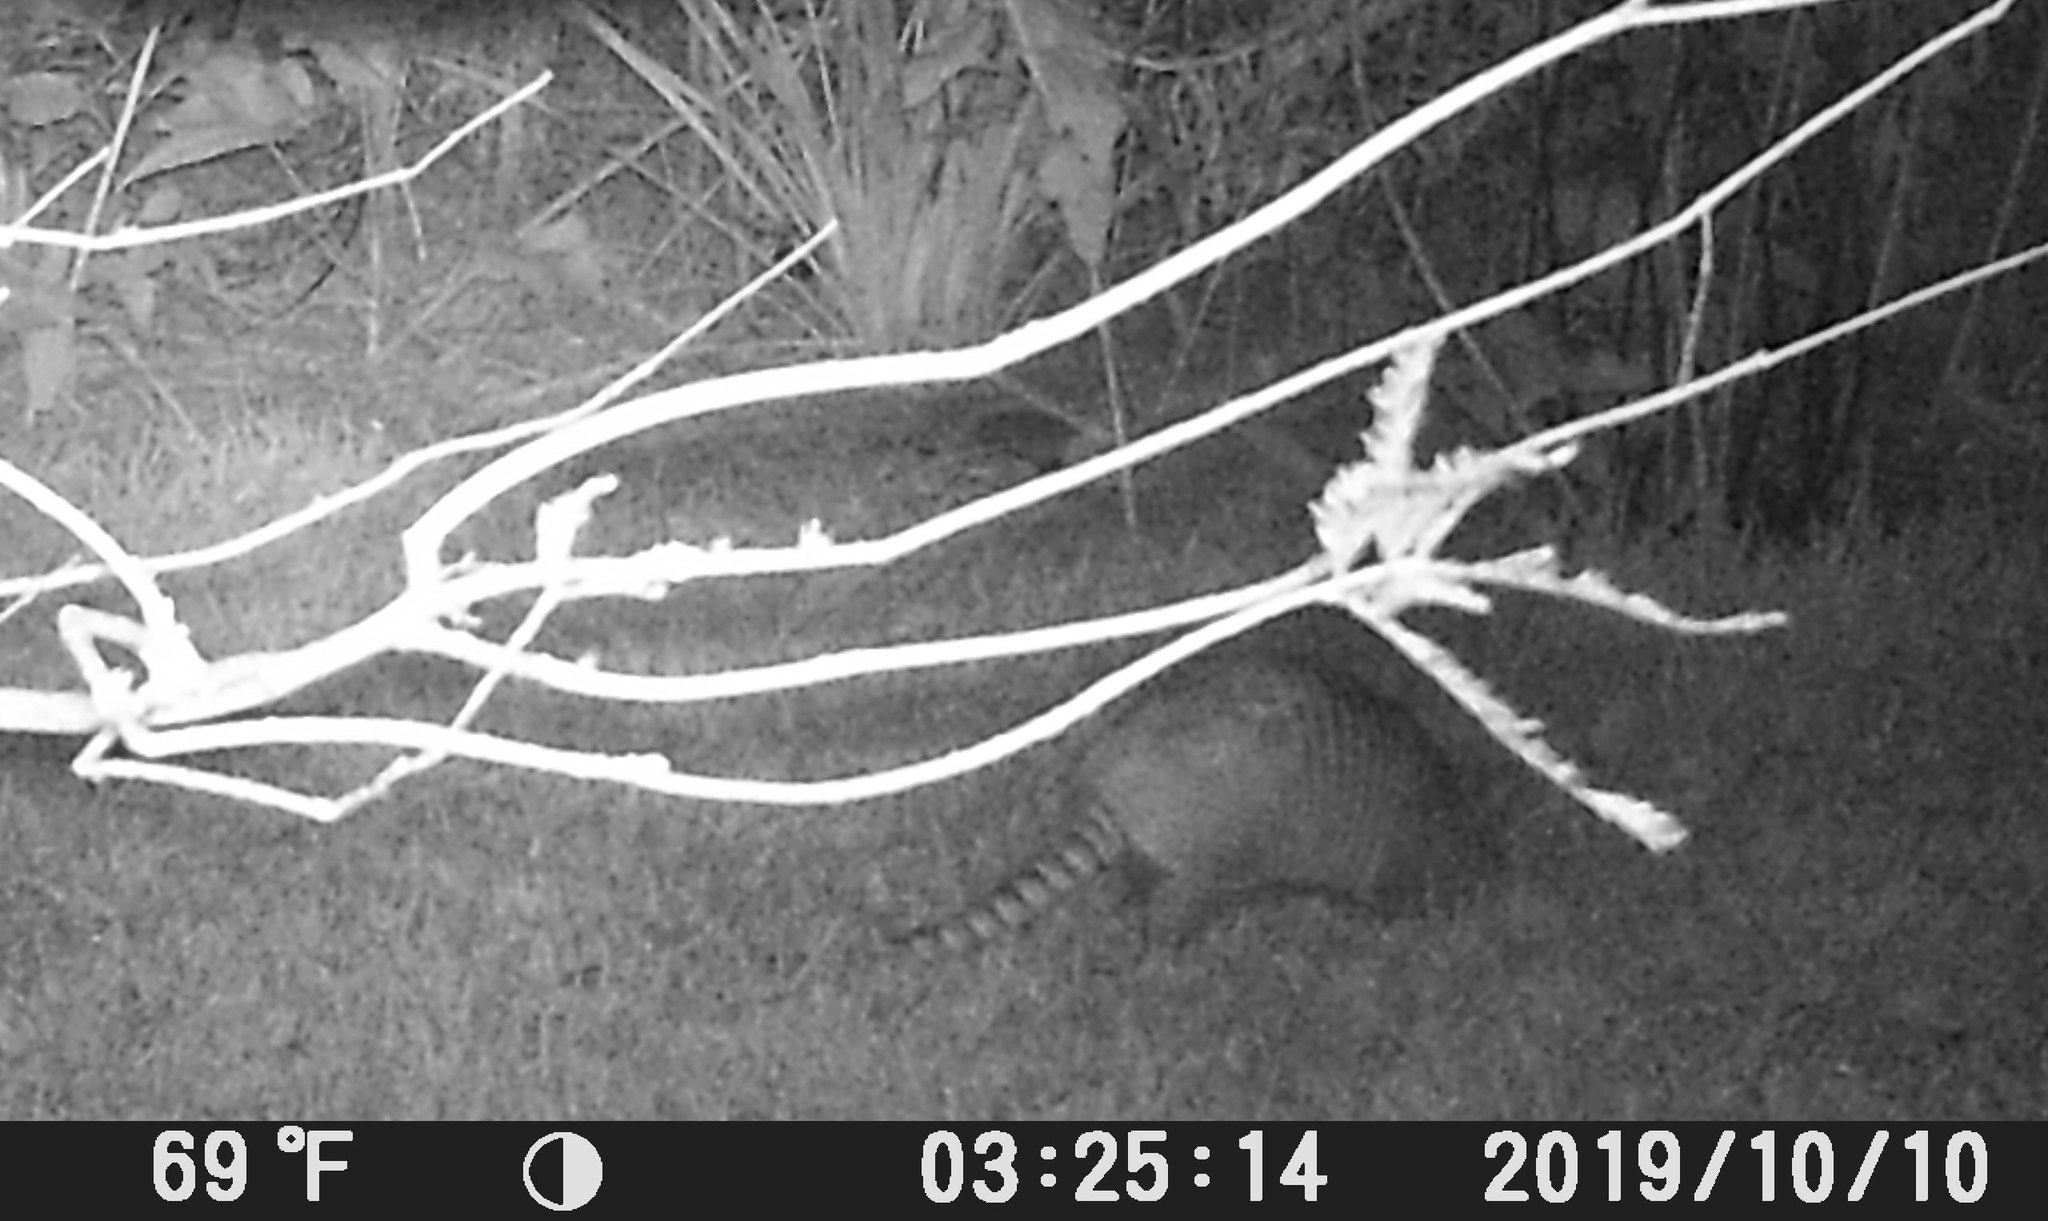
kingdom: Animalia
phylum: Chordata
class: Mammalia
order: Cingulata
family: Dasypodidae
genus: Dasypus
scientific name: Dasypus novemcinctus
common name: Nine-banded armadillo
